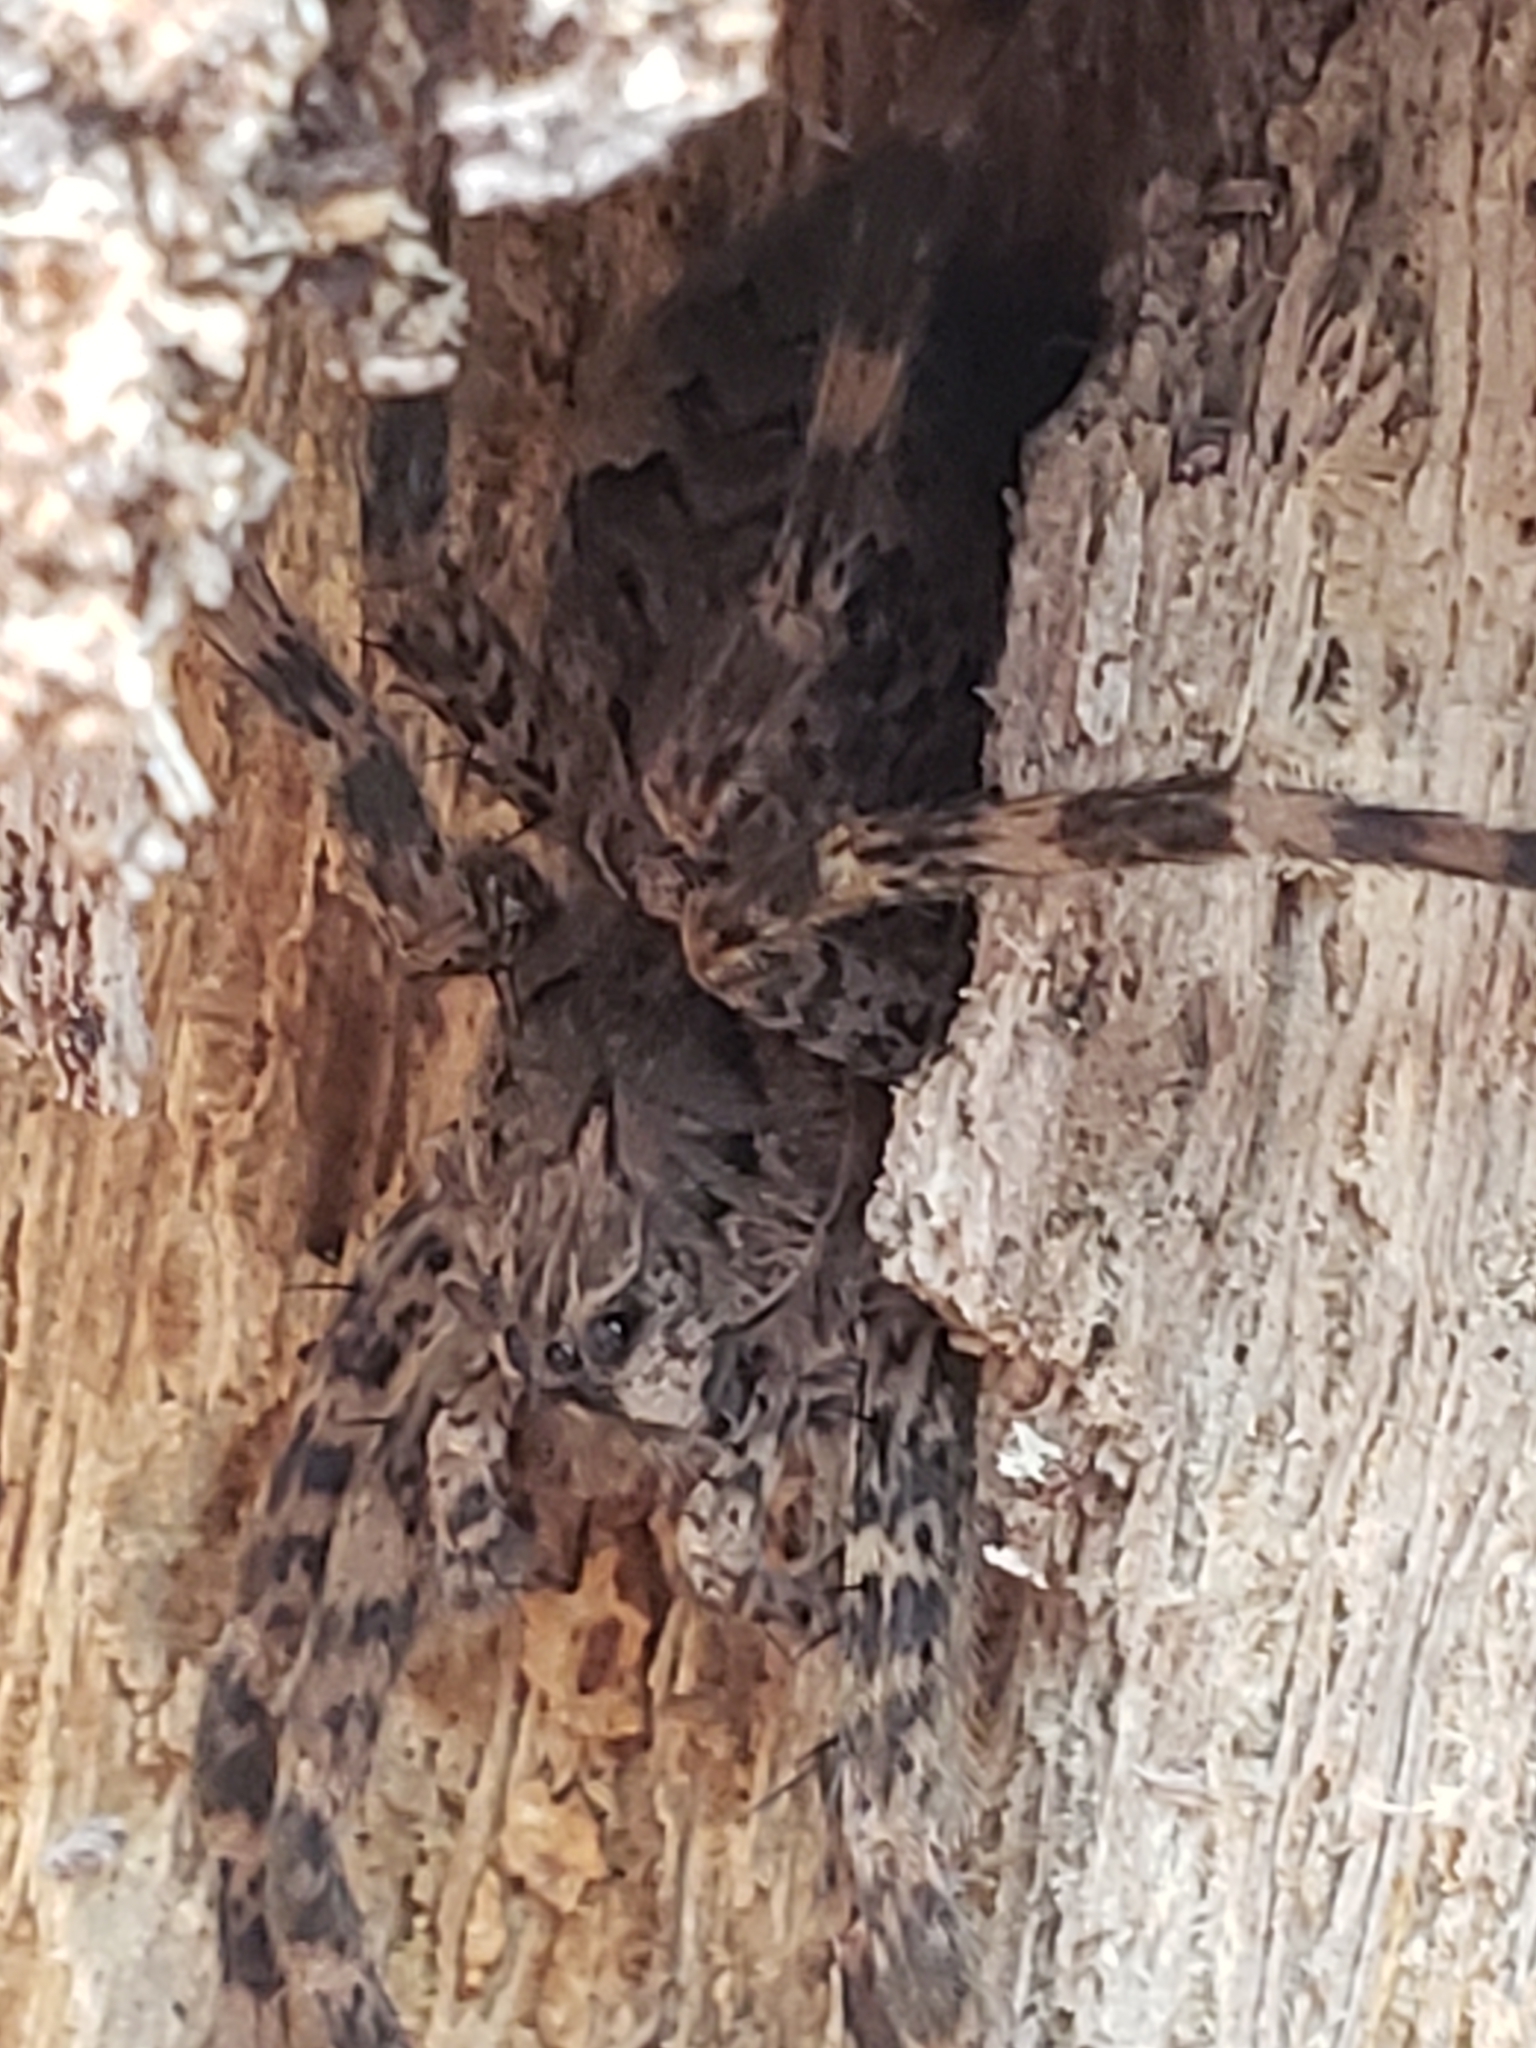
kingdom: Animalia
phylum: Arthropoda
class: Arachnida
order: Araneae
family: Pisauridae
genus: Dolomedes
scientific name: Dolomedes tenebrosus
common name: Dark fishing spider
